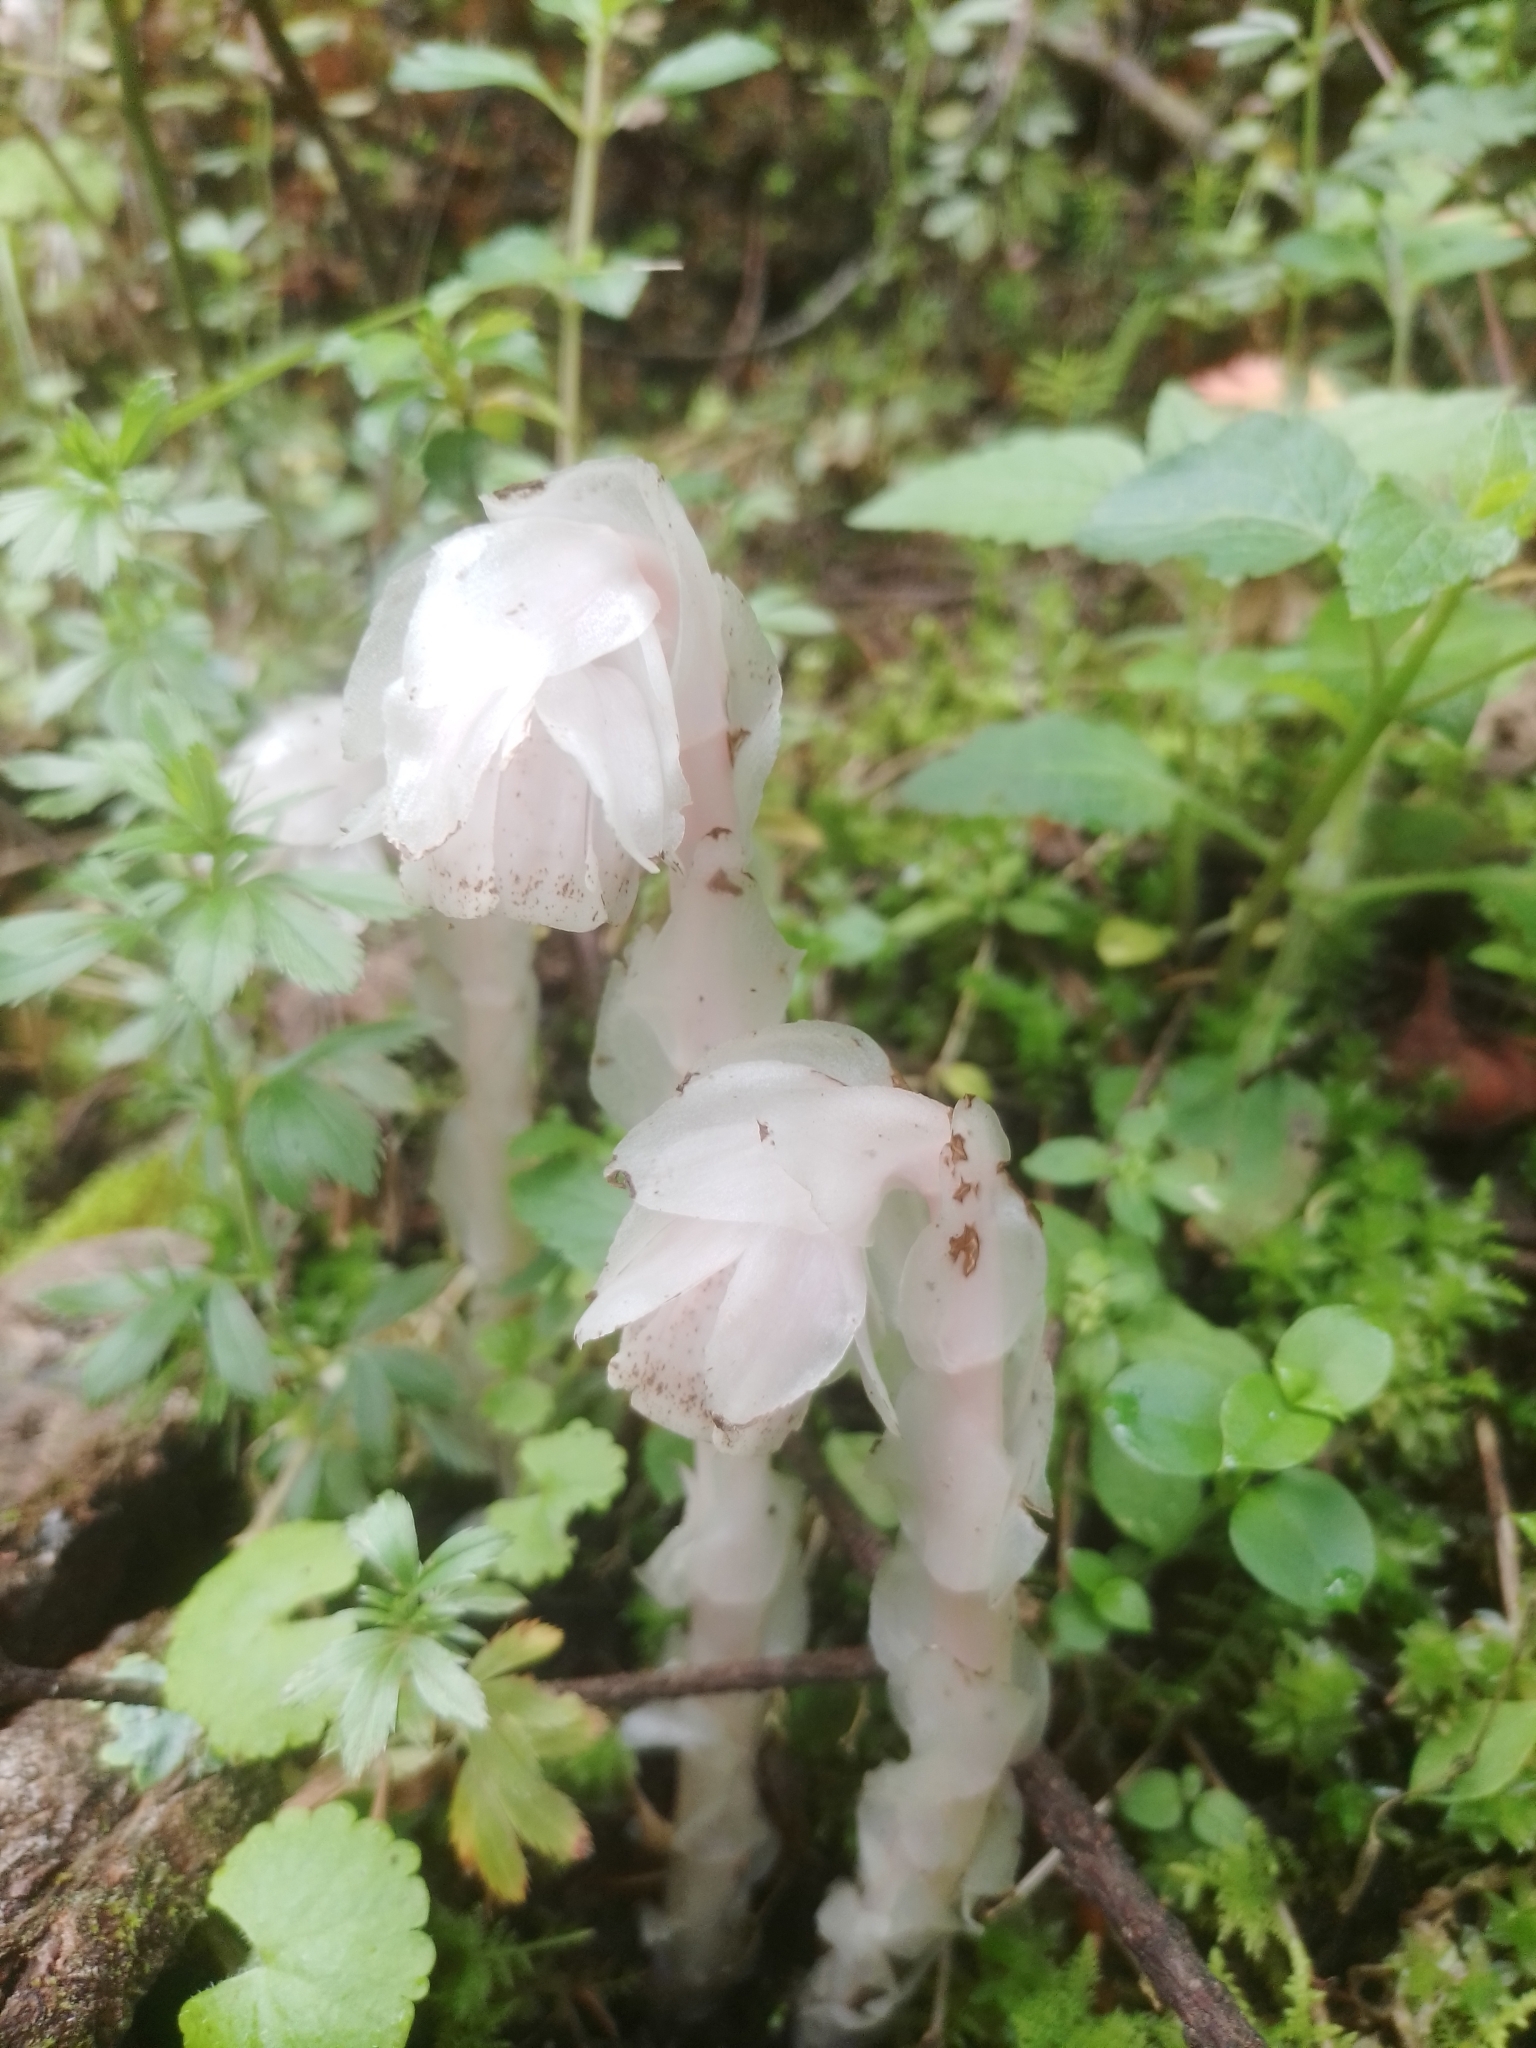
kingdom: Plantae
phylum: Tracheophyta
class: Magnoliopsida
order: Ericales
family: Ericaceae
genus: Monotropa
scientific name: Monotropa uniflora
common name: Convulsion root
